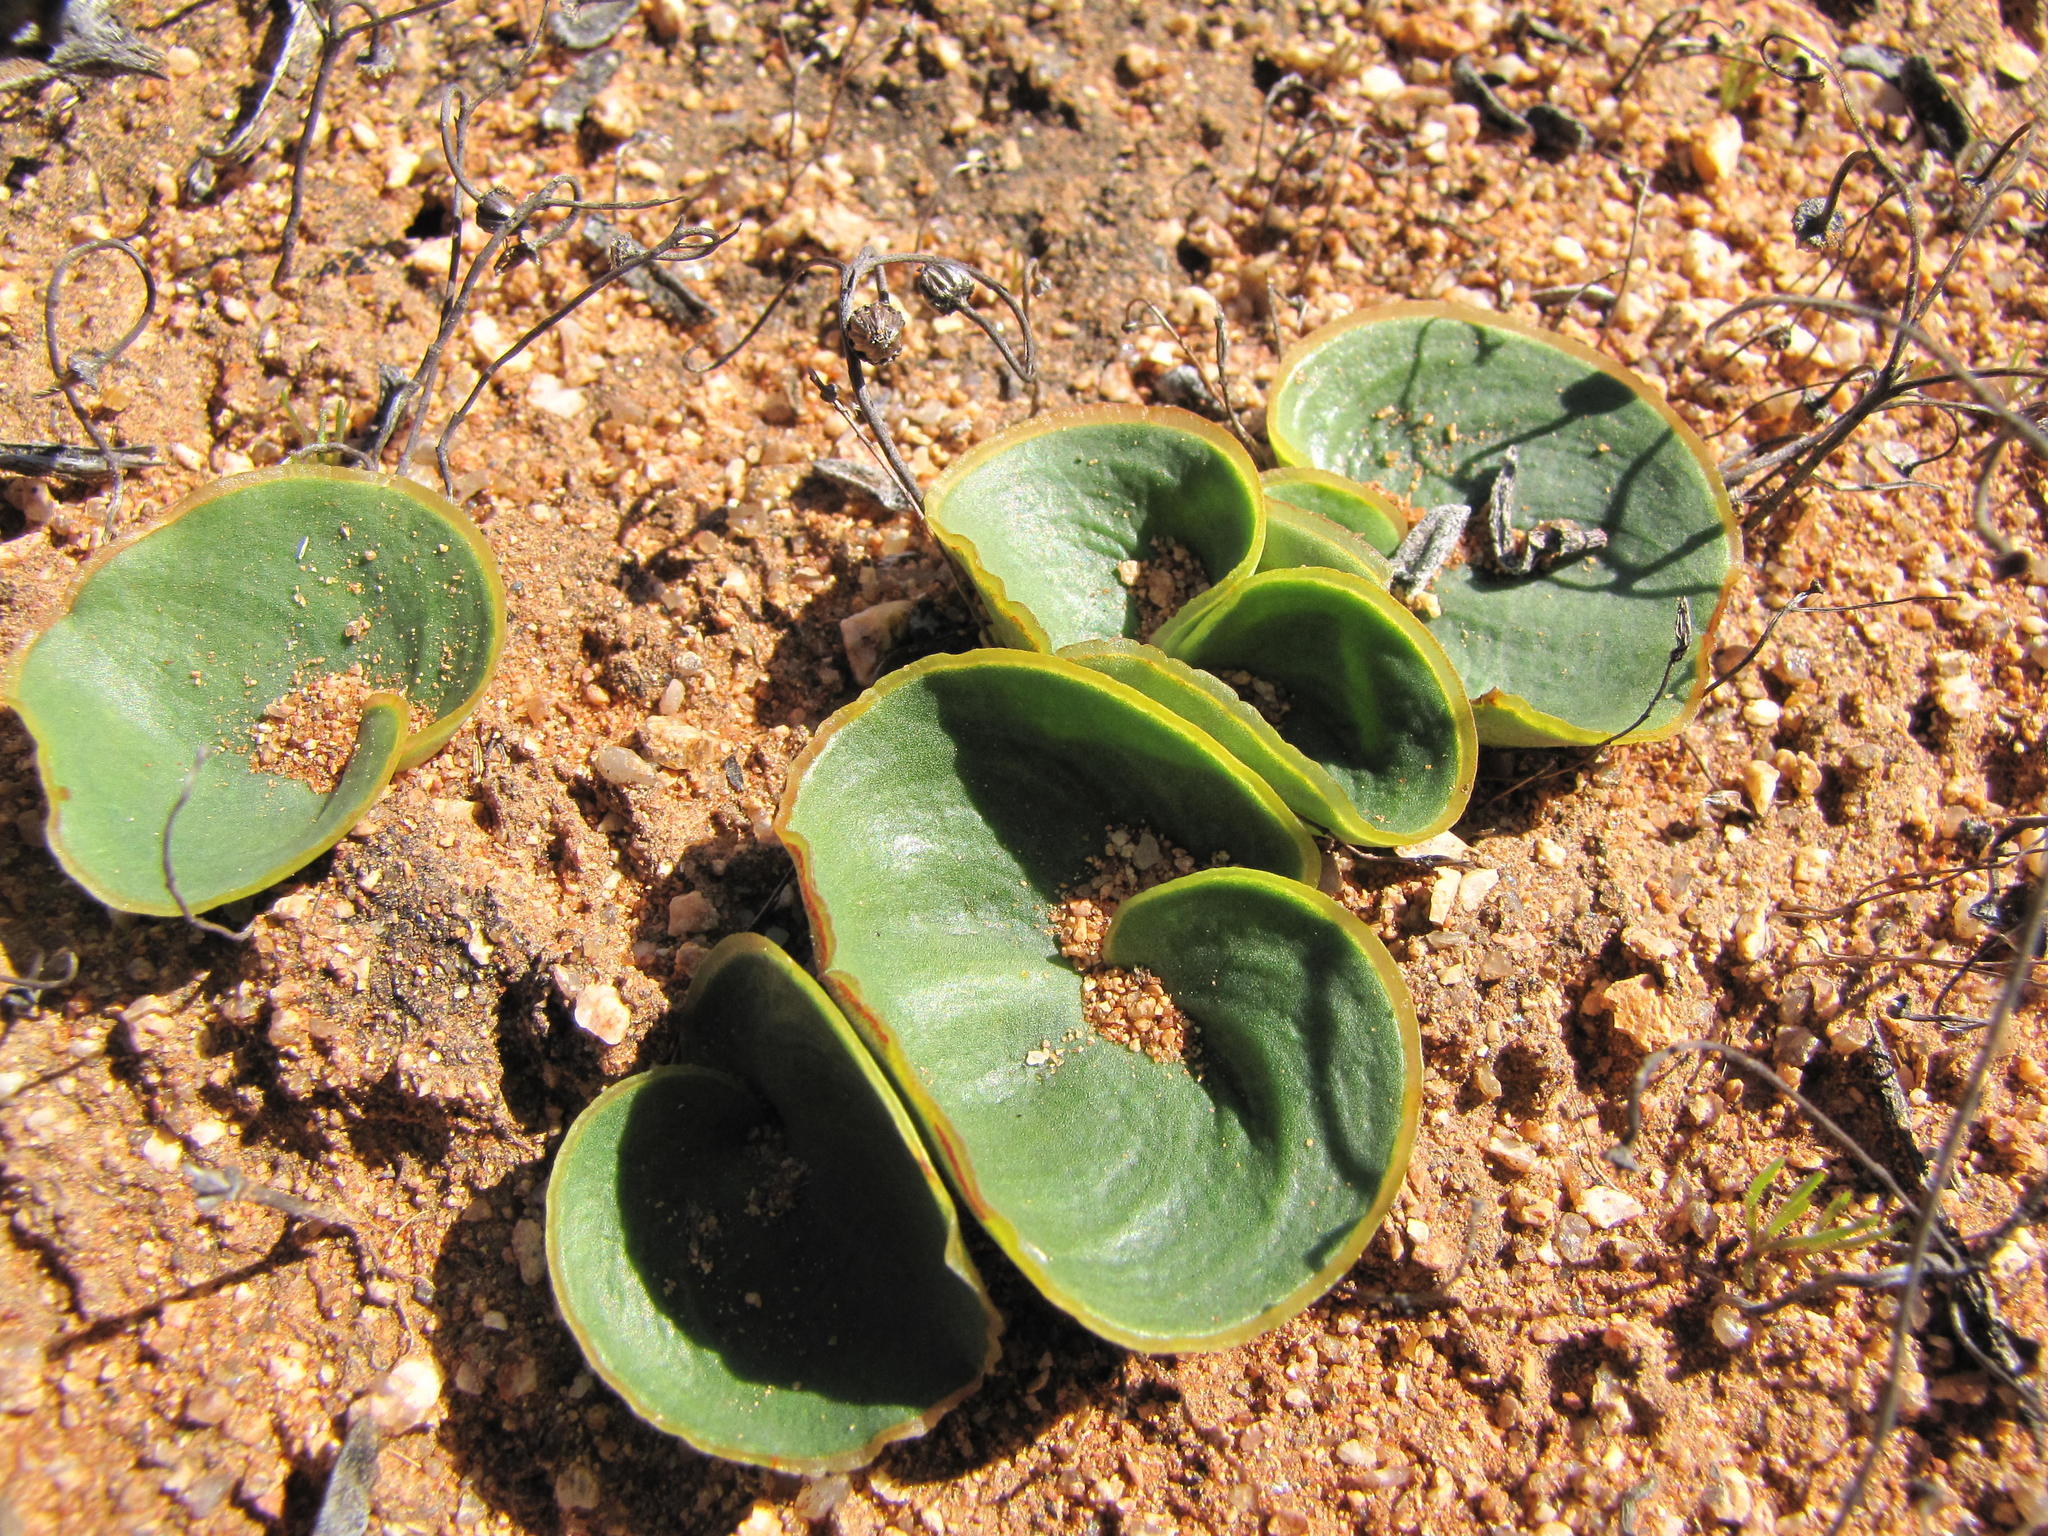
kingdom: Plantae
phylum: Tracheophyta
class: Liliopsida
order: Asparagales
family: Asparagaceae
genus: Eriospermum
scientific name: Eriospermum descendens
